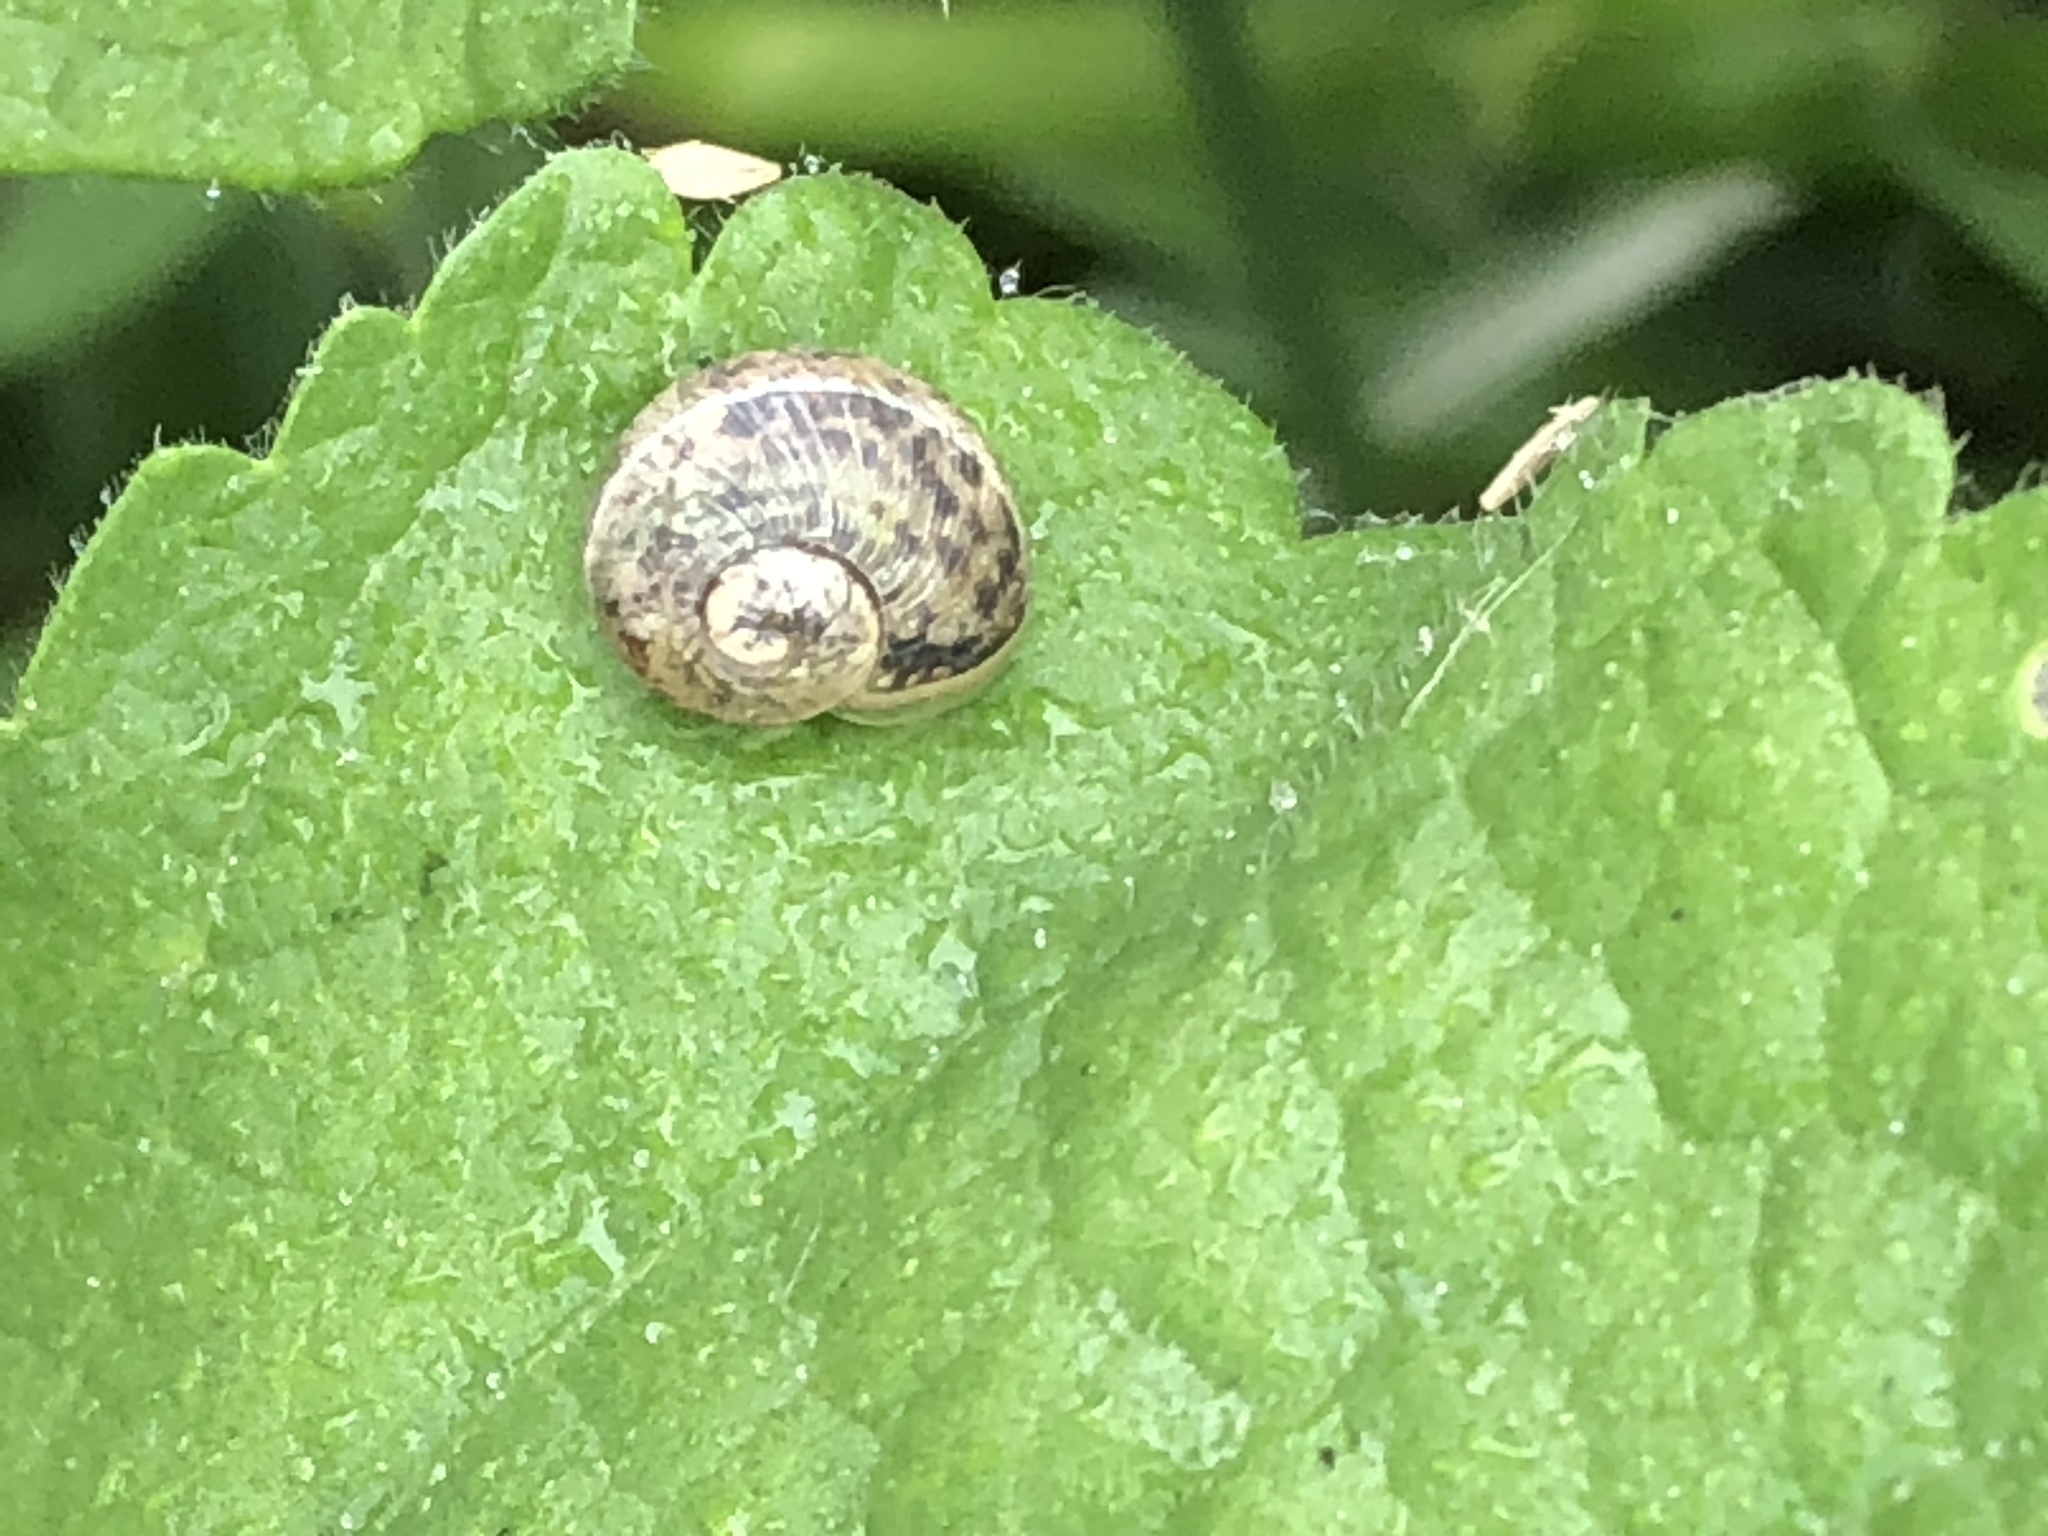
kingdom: Animalia
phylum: Mollusca
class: Gastropoda
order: Stylommatophora
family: Helicidae
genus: Cornu
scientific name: Cornu aspersum
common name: Brown garden snail
